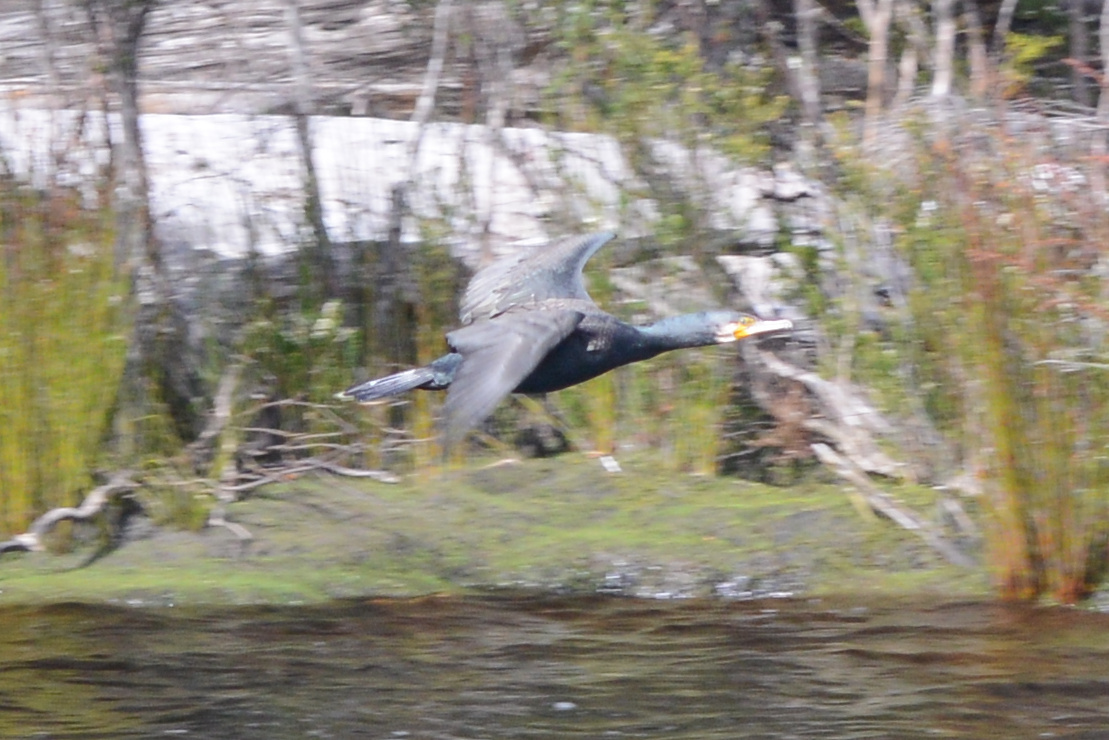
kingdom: Animalia
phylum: Chordata
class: Aves
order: Suliformes
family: Phalacrocoracidae
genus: Phalacrocorax
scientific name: Phalacrocorax carbo
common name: Great cormorant
